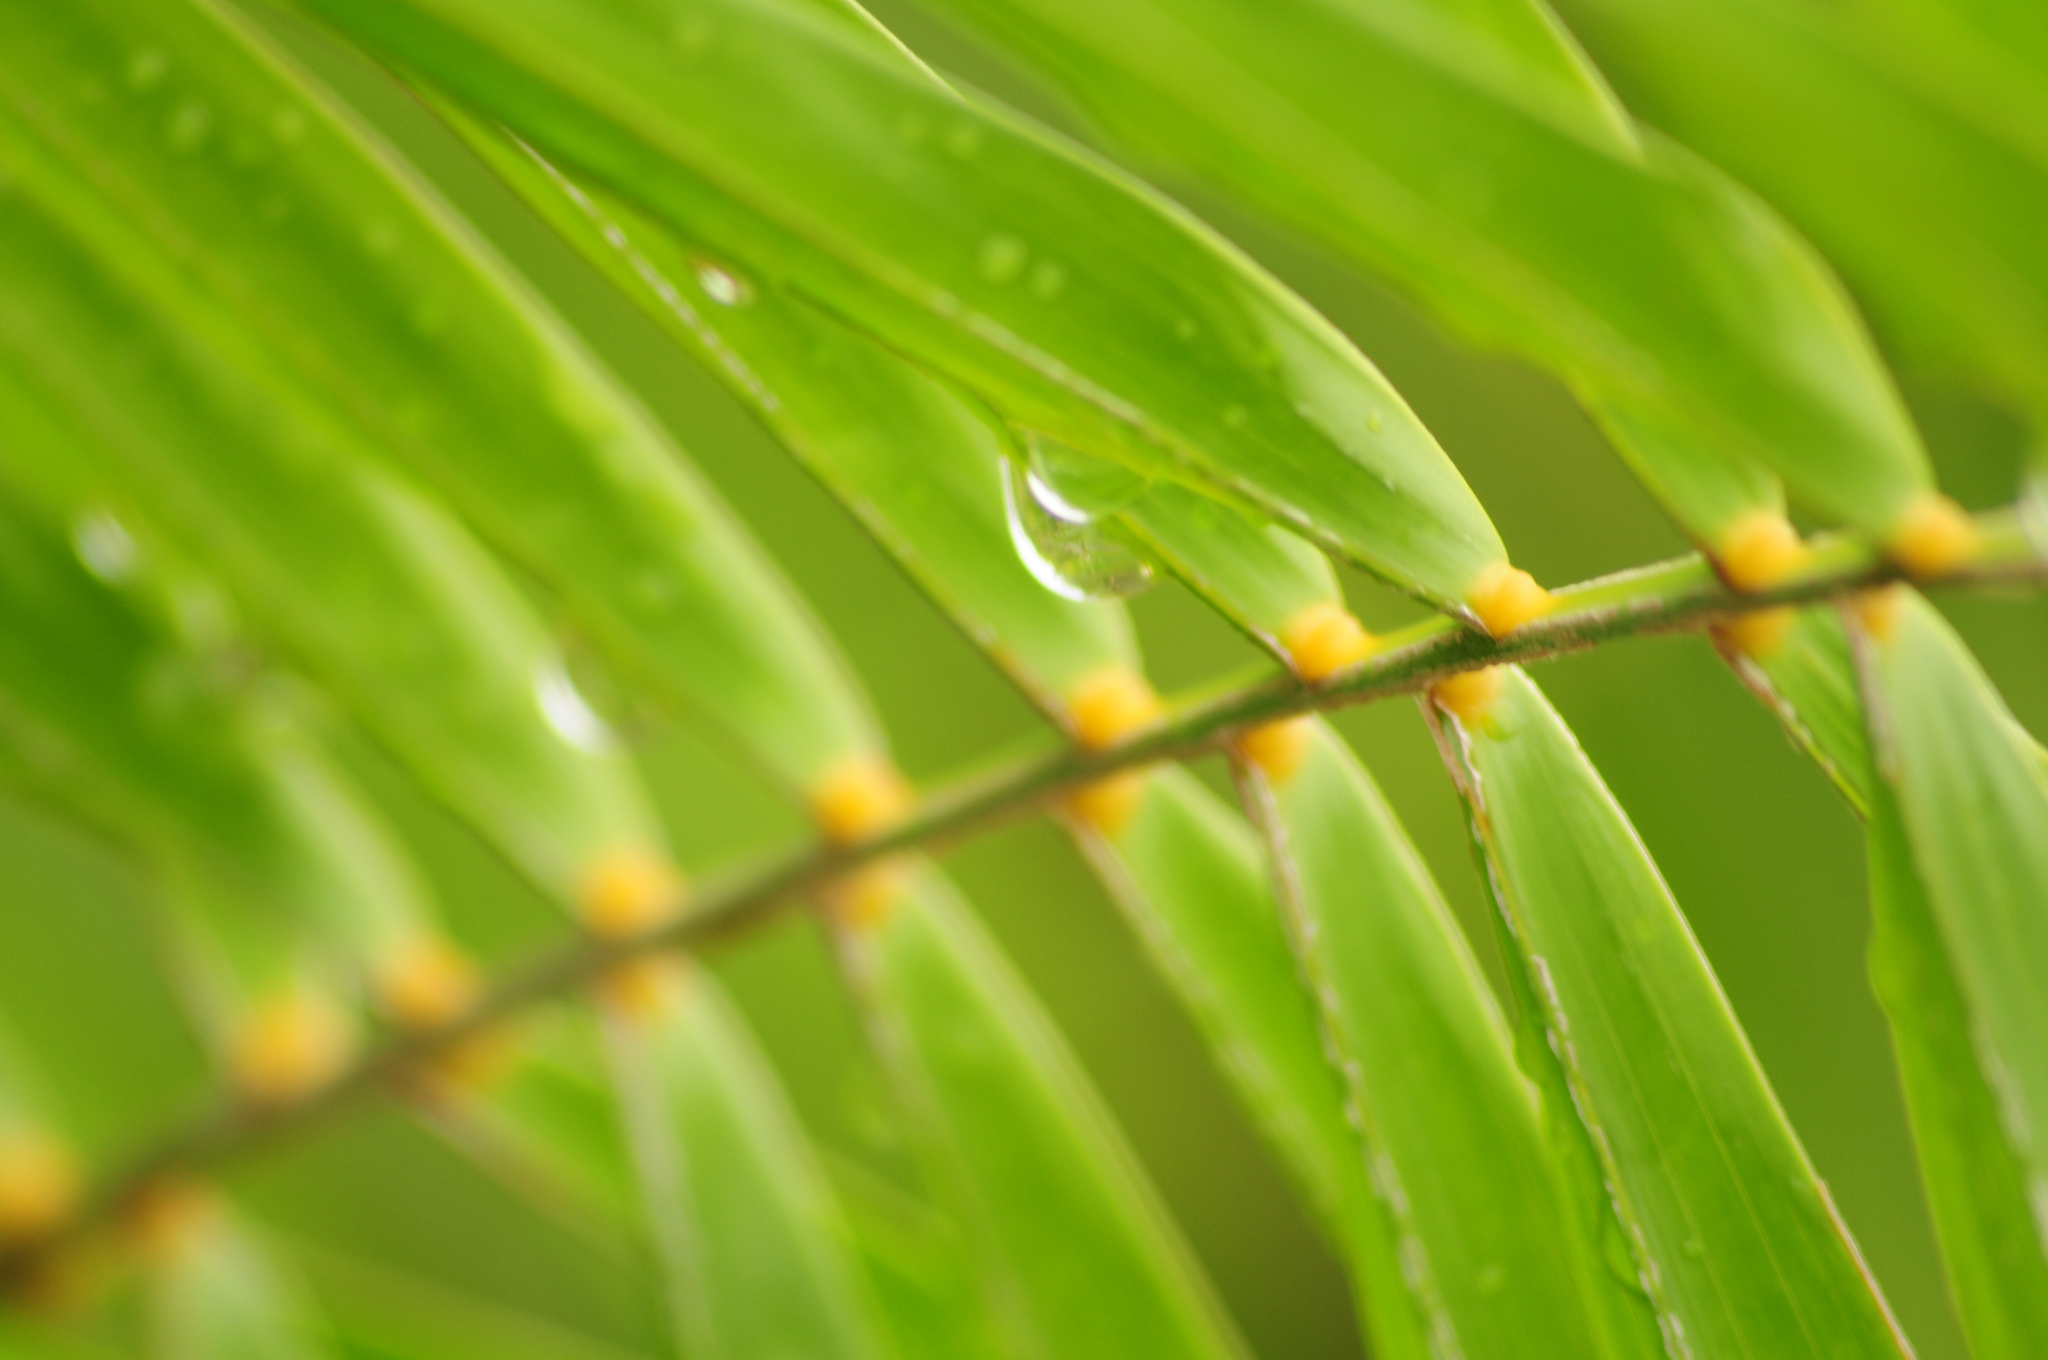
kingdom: Plantae
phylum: Tracheophyta
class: Liliopsida
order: Arecales
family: Arecaceae
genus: Phoenix
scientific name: Phoenix pusilla
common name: Flour palm
